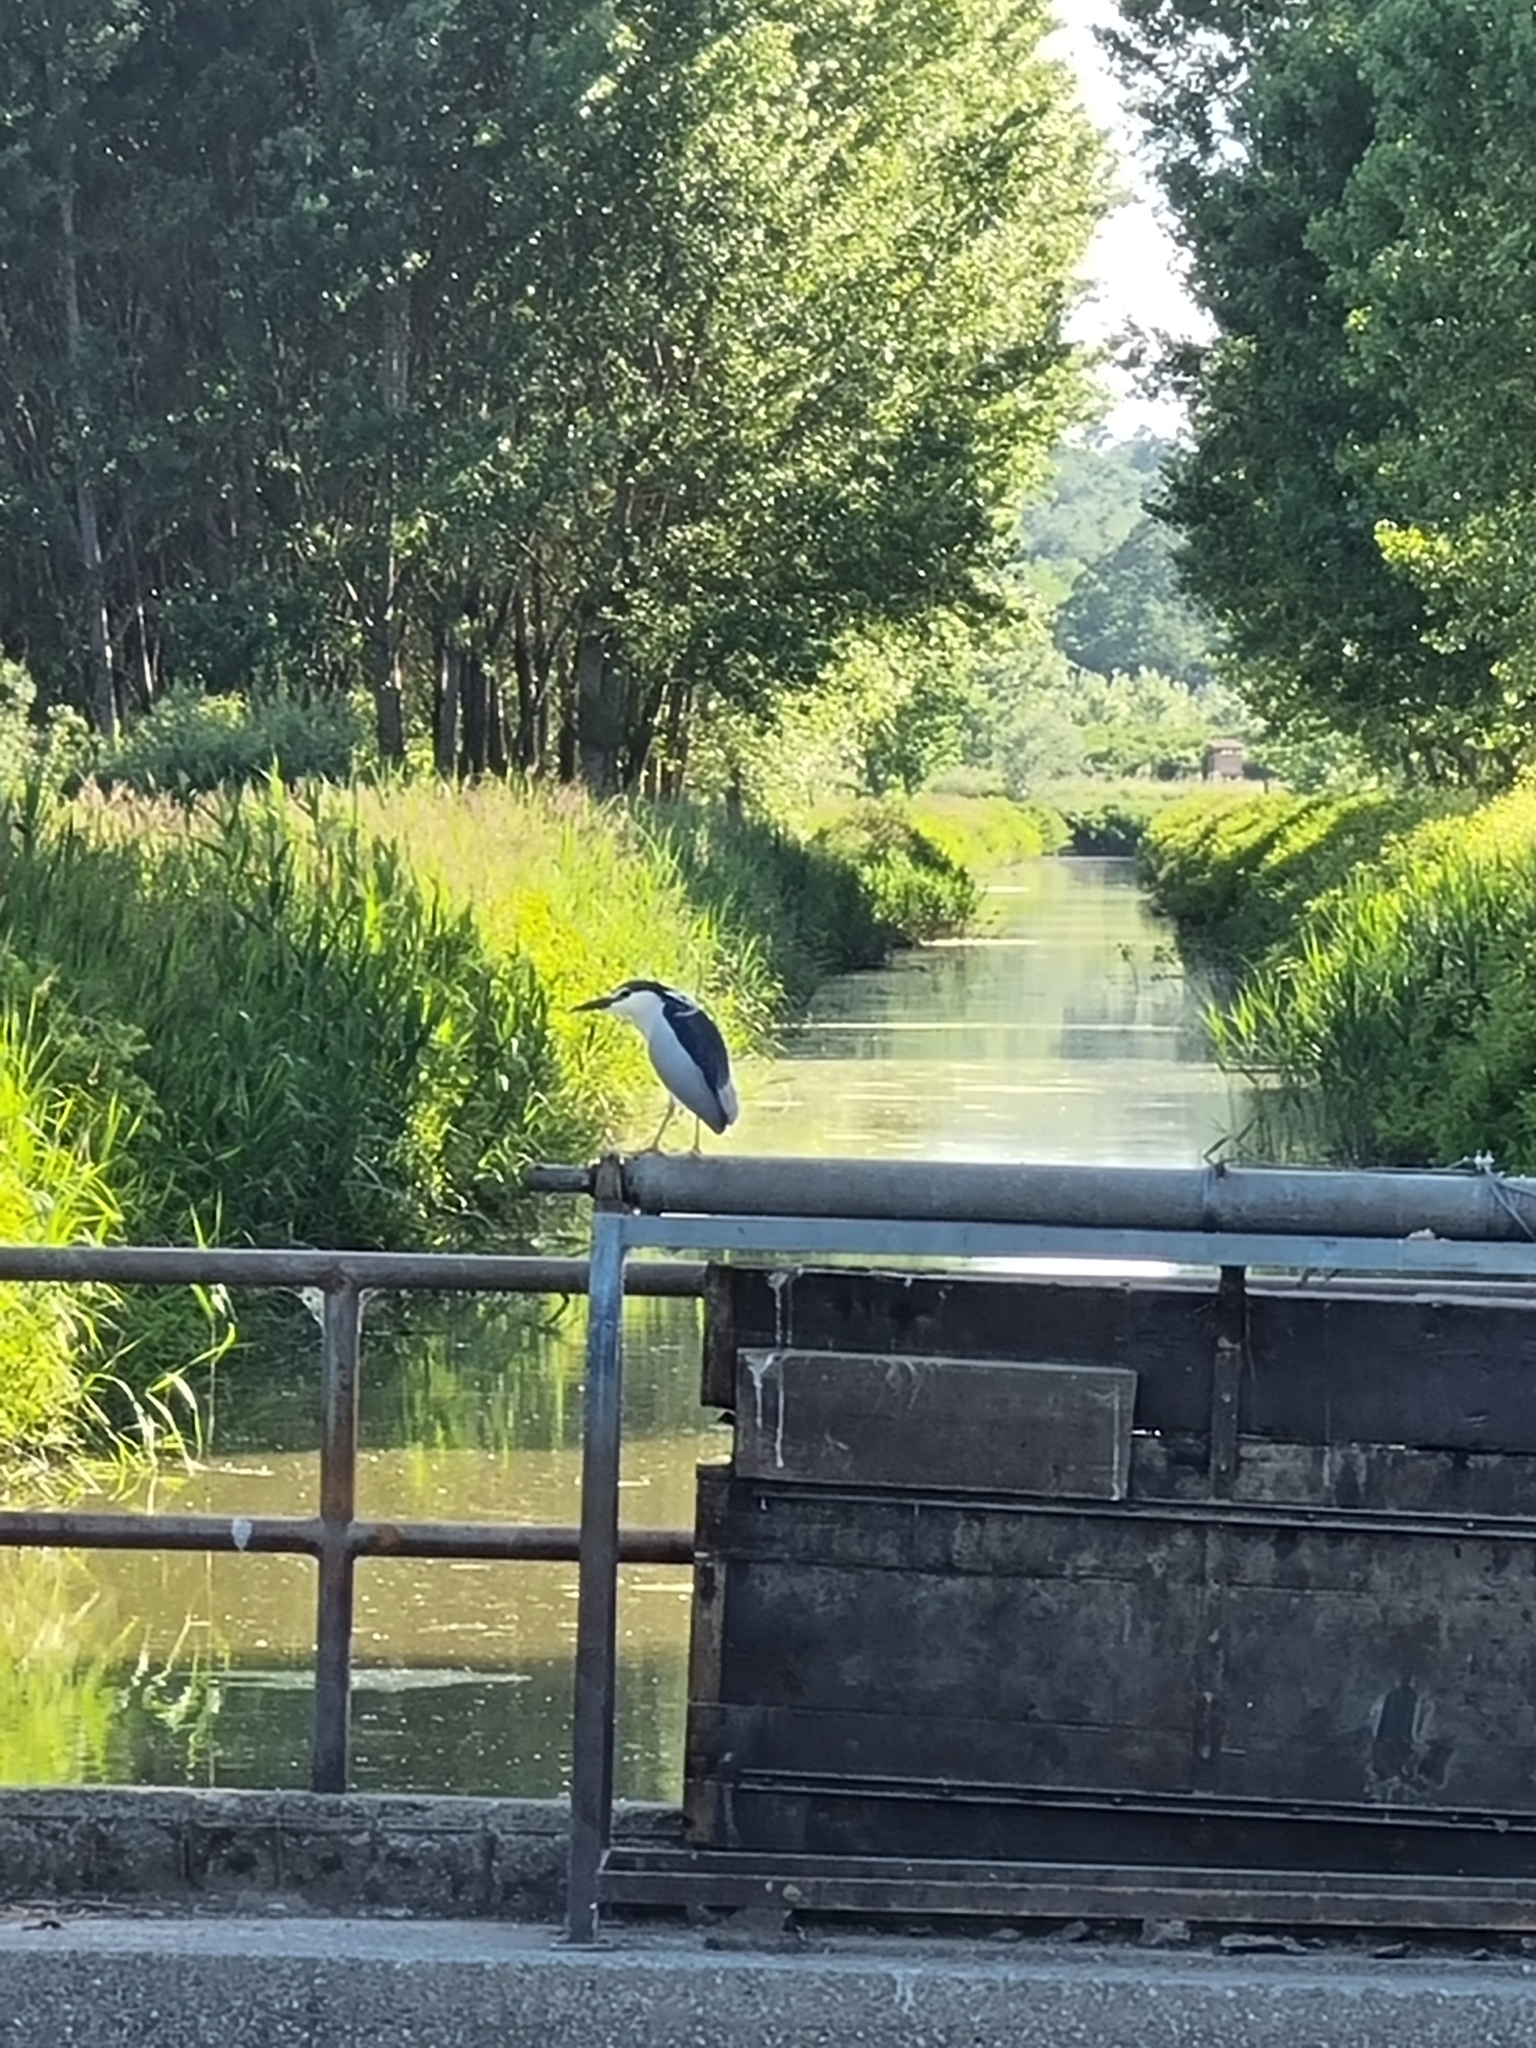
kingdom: Animalia
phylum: Chordata
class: Aves
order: Pelecaniformes
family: Ardeidae
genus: Nycticorax
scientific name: Nycticorax nycticorax
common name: Black-crowned night heron
